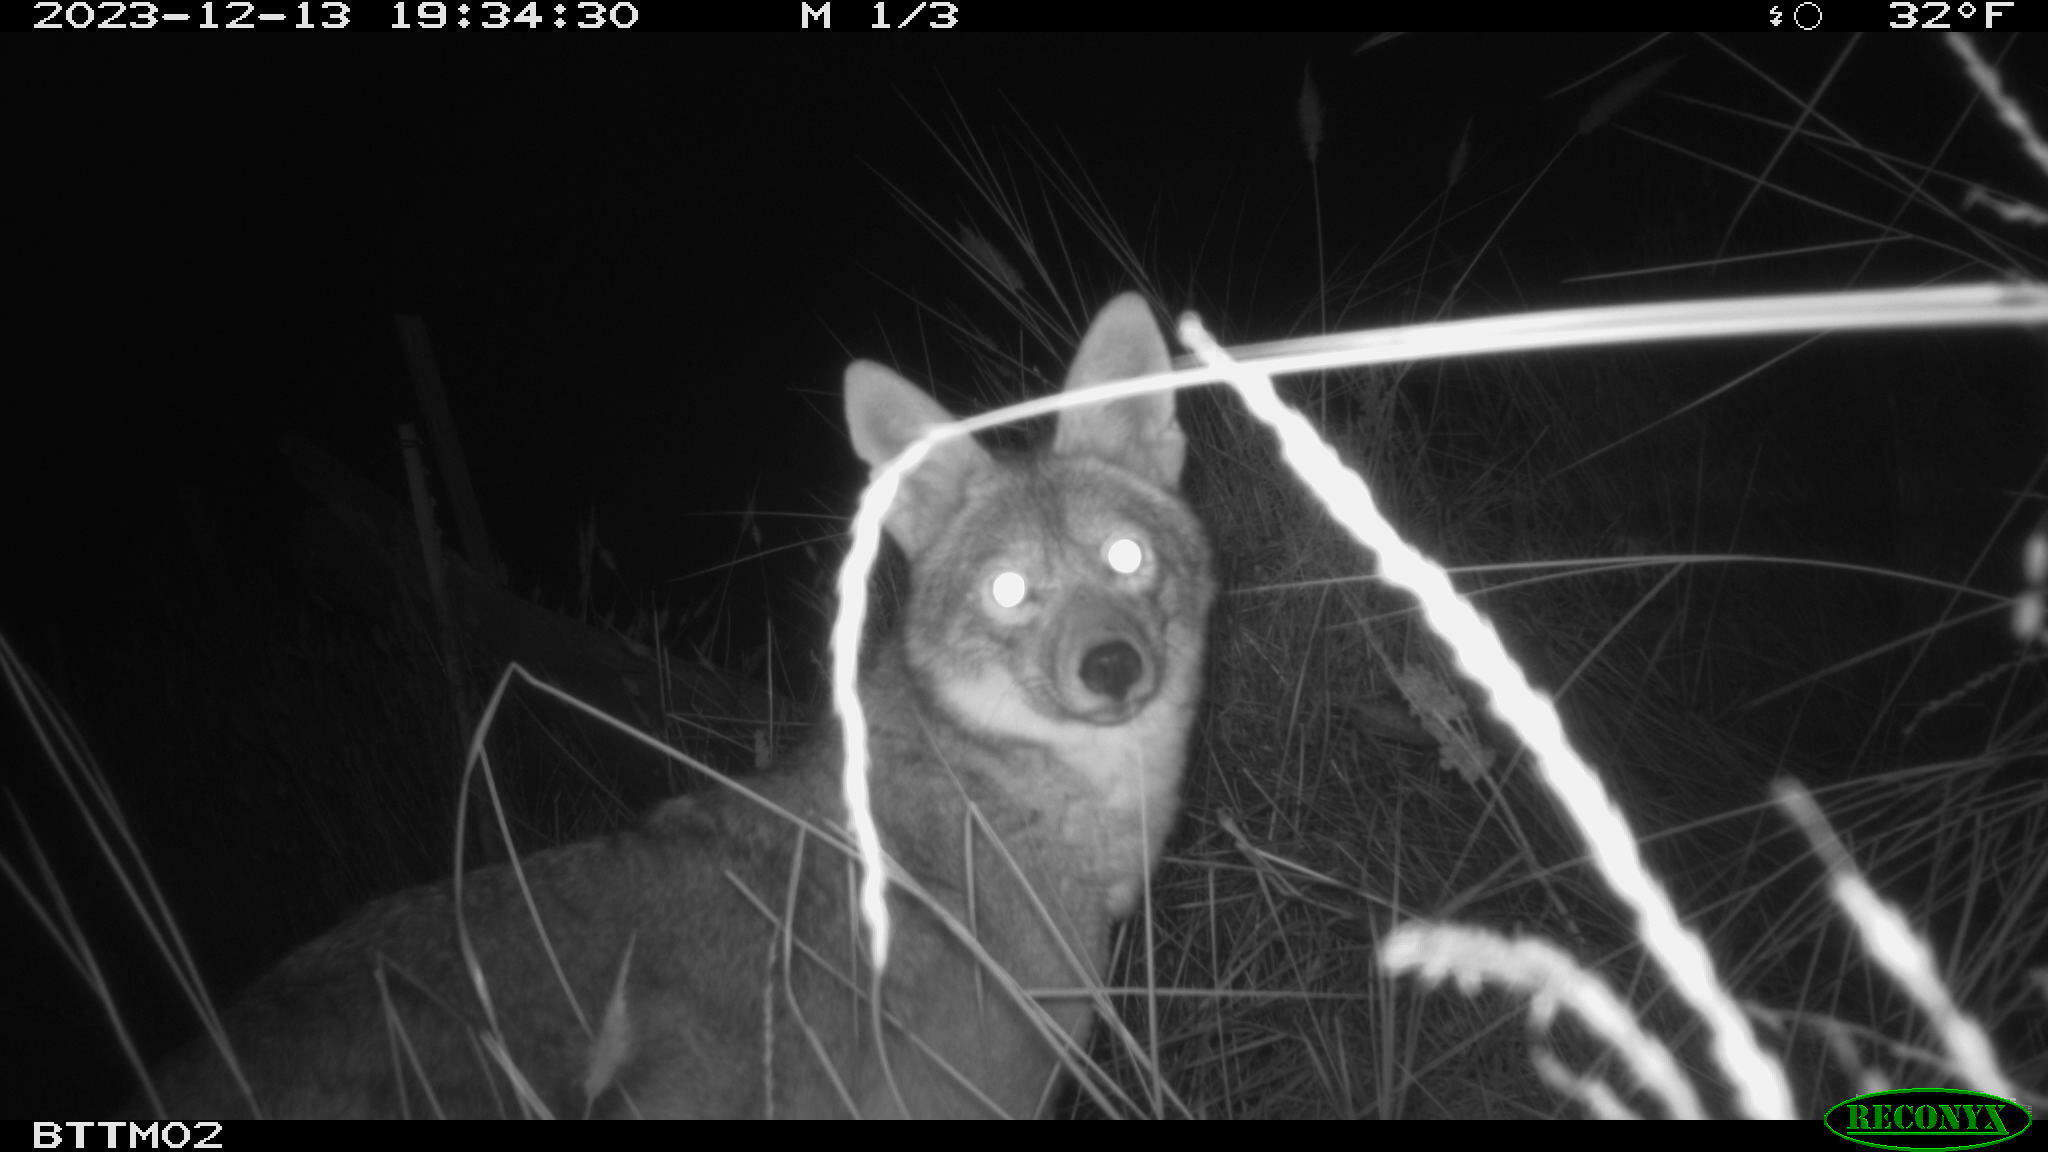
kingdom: Animalia
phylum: Chordata
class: Mammalia
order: Carnivora
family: Canidae
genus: Canis
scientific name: Canis latrans
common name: Coyote
